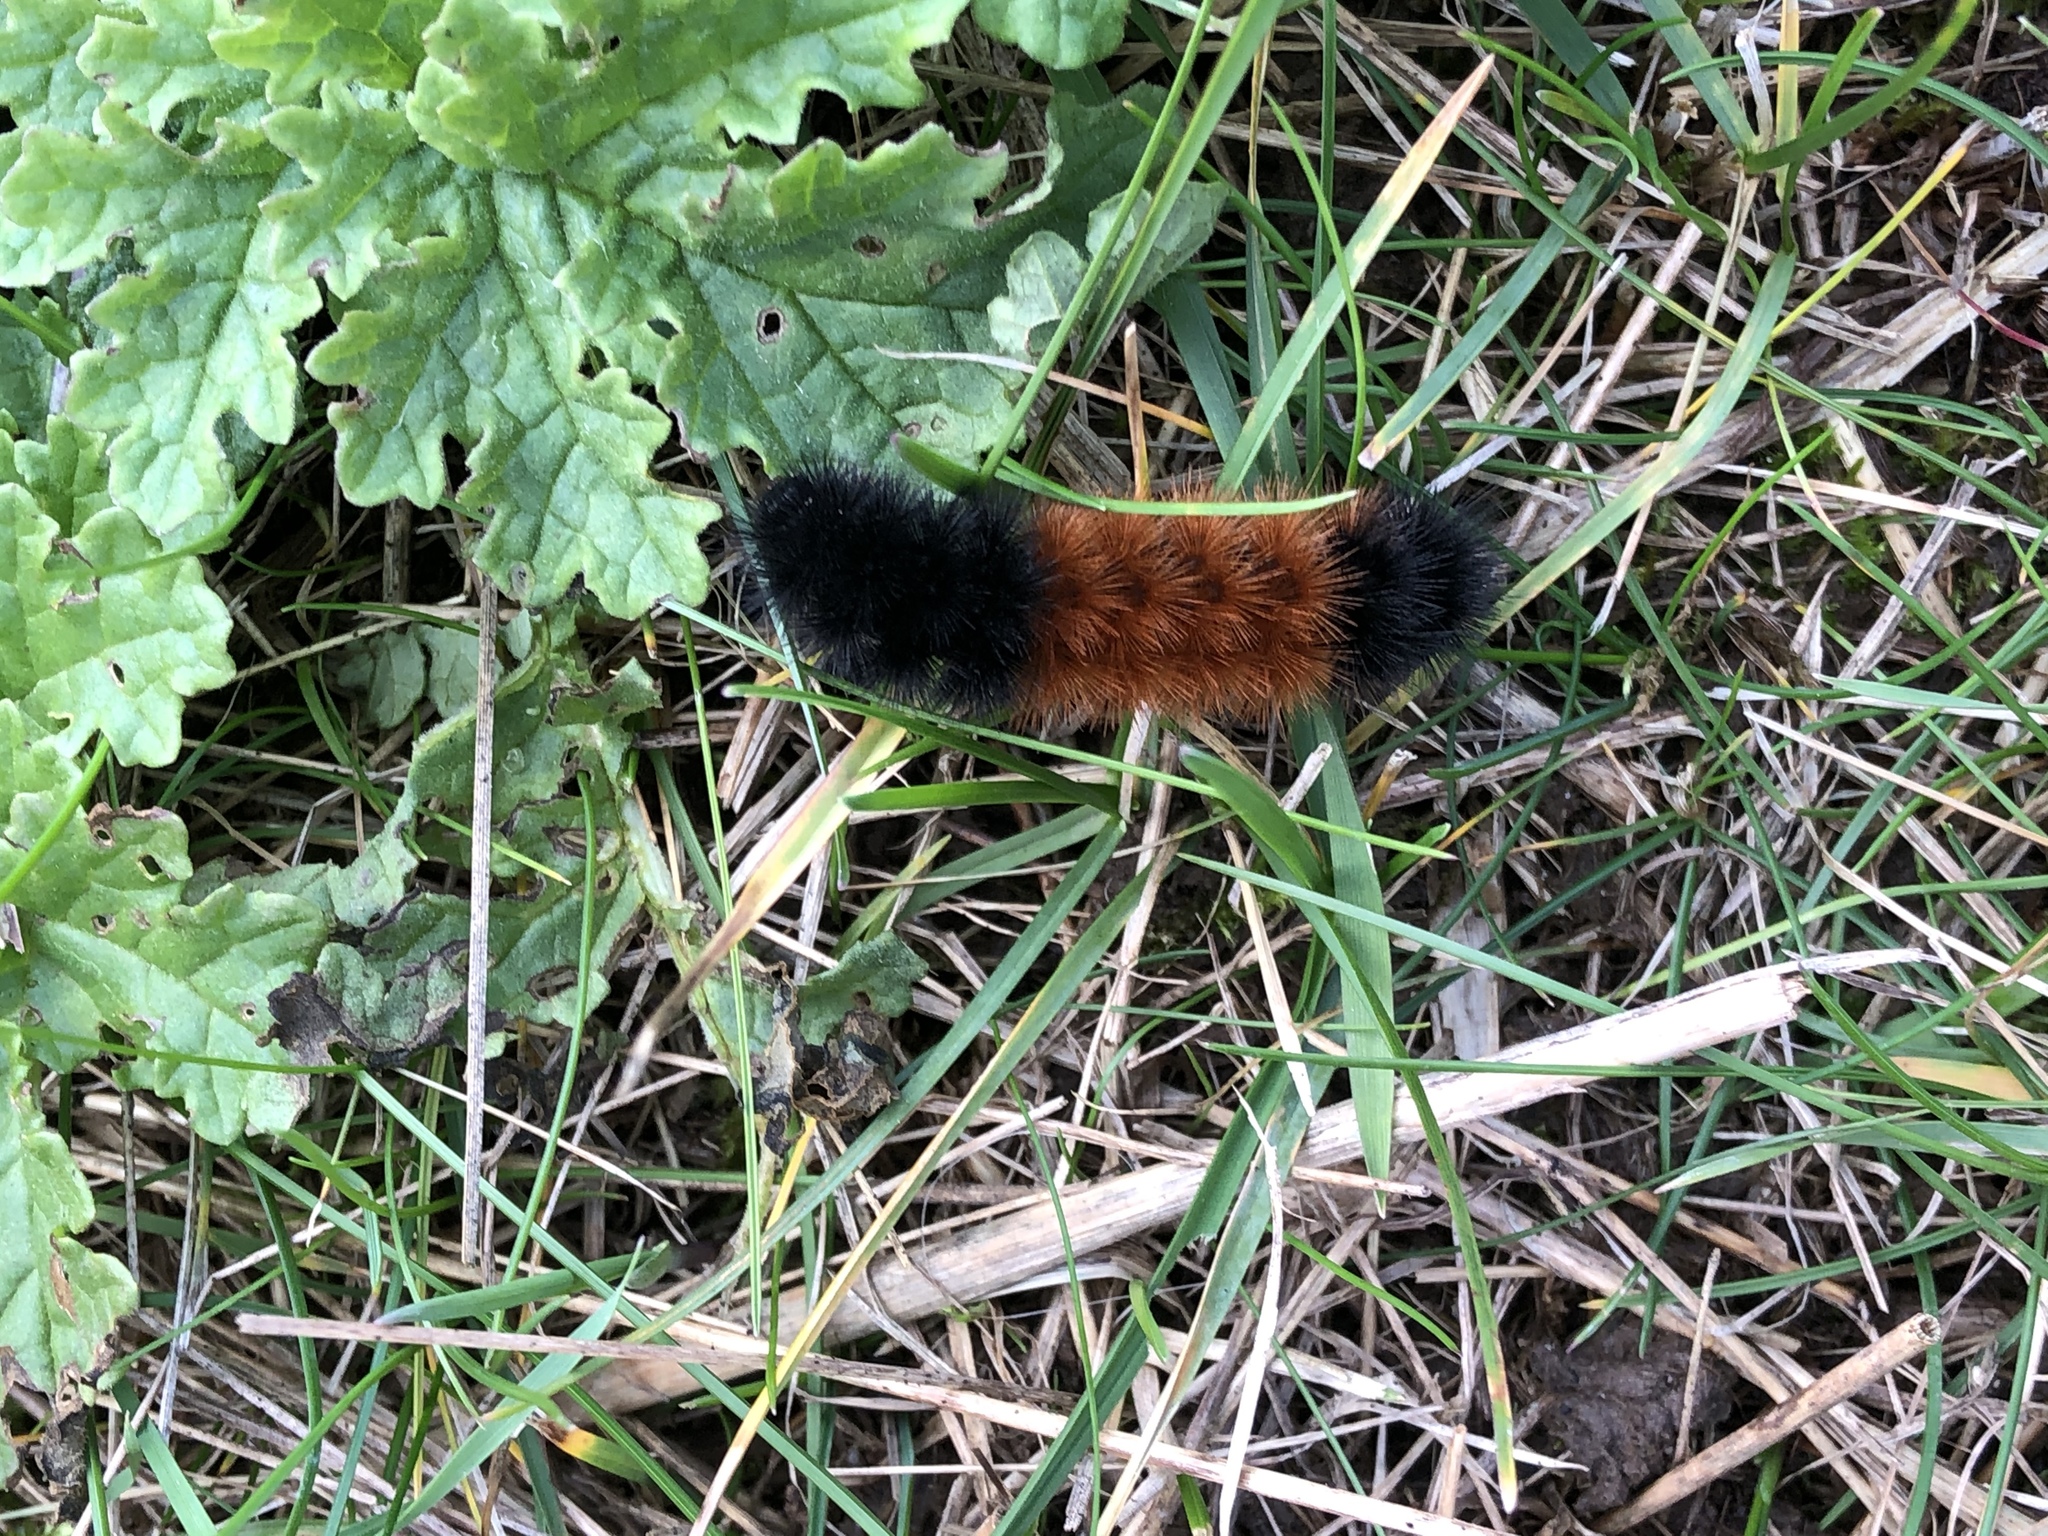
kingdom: Animalia
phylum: Arthropoda
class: Insecta
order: Lepidoptera
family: Erebidae
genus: Pyrrharctia
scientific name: Pyrrharctia isabella
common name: Isabella tiger moth
